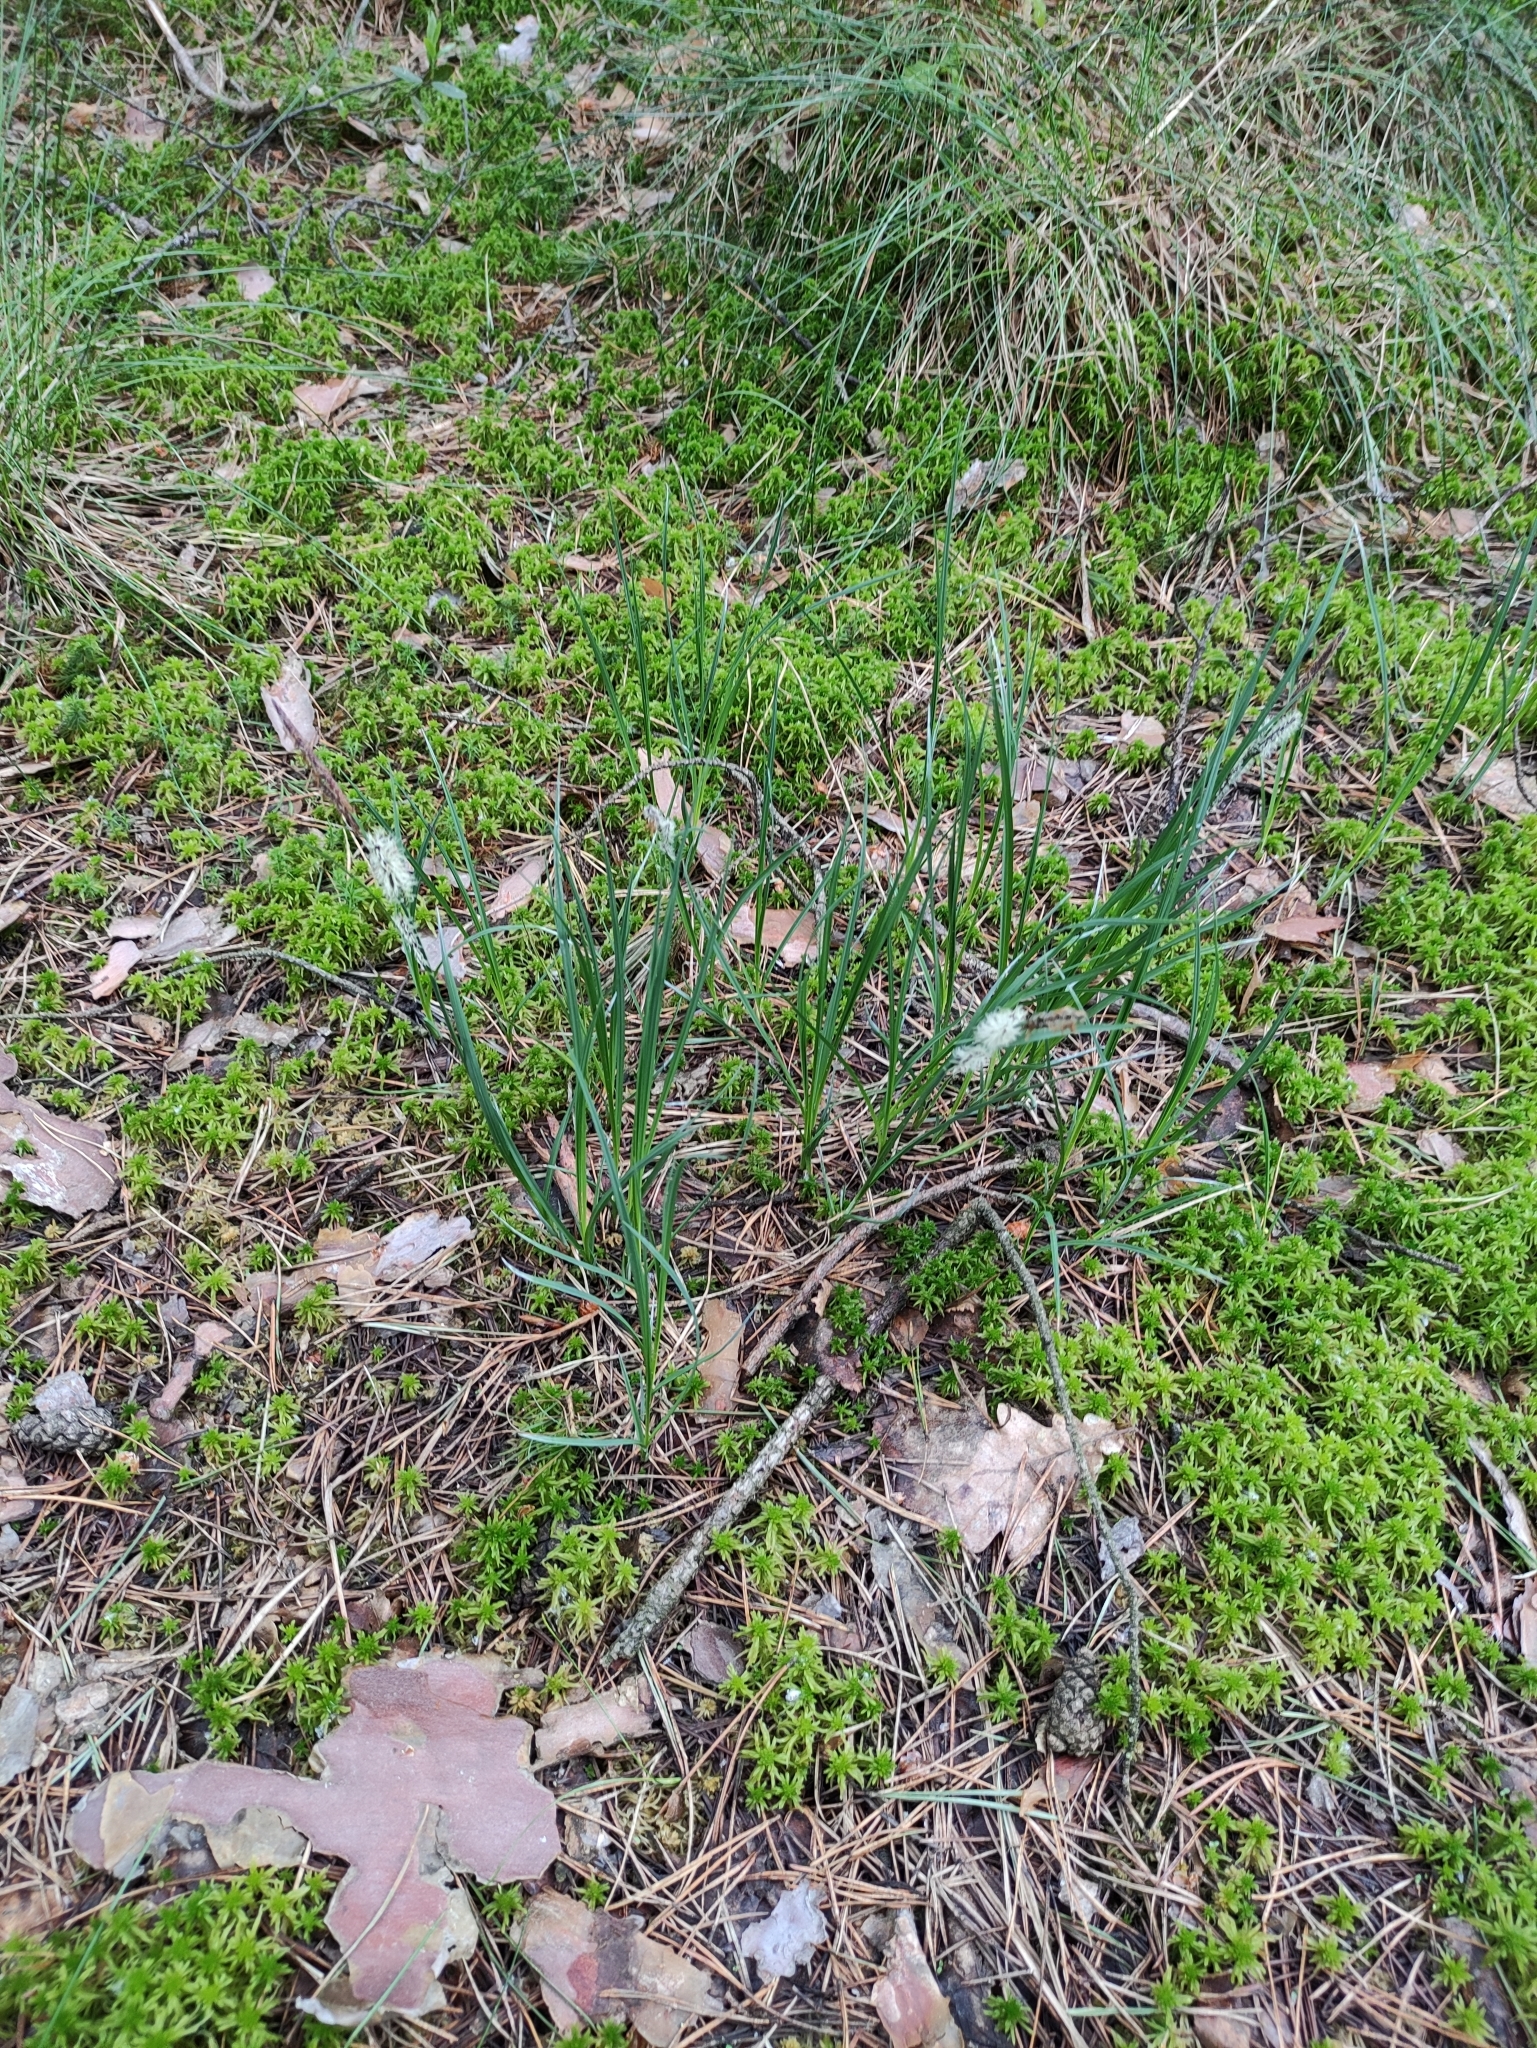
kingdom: Plantae
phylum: Tracheophyta
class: Liliopsida
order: Poales
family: Cyperaceae
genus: Carex
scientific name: Carex nigra
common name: Common sedge
